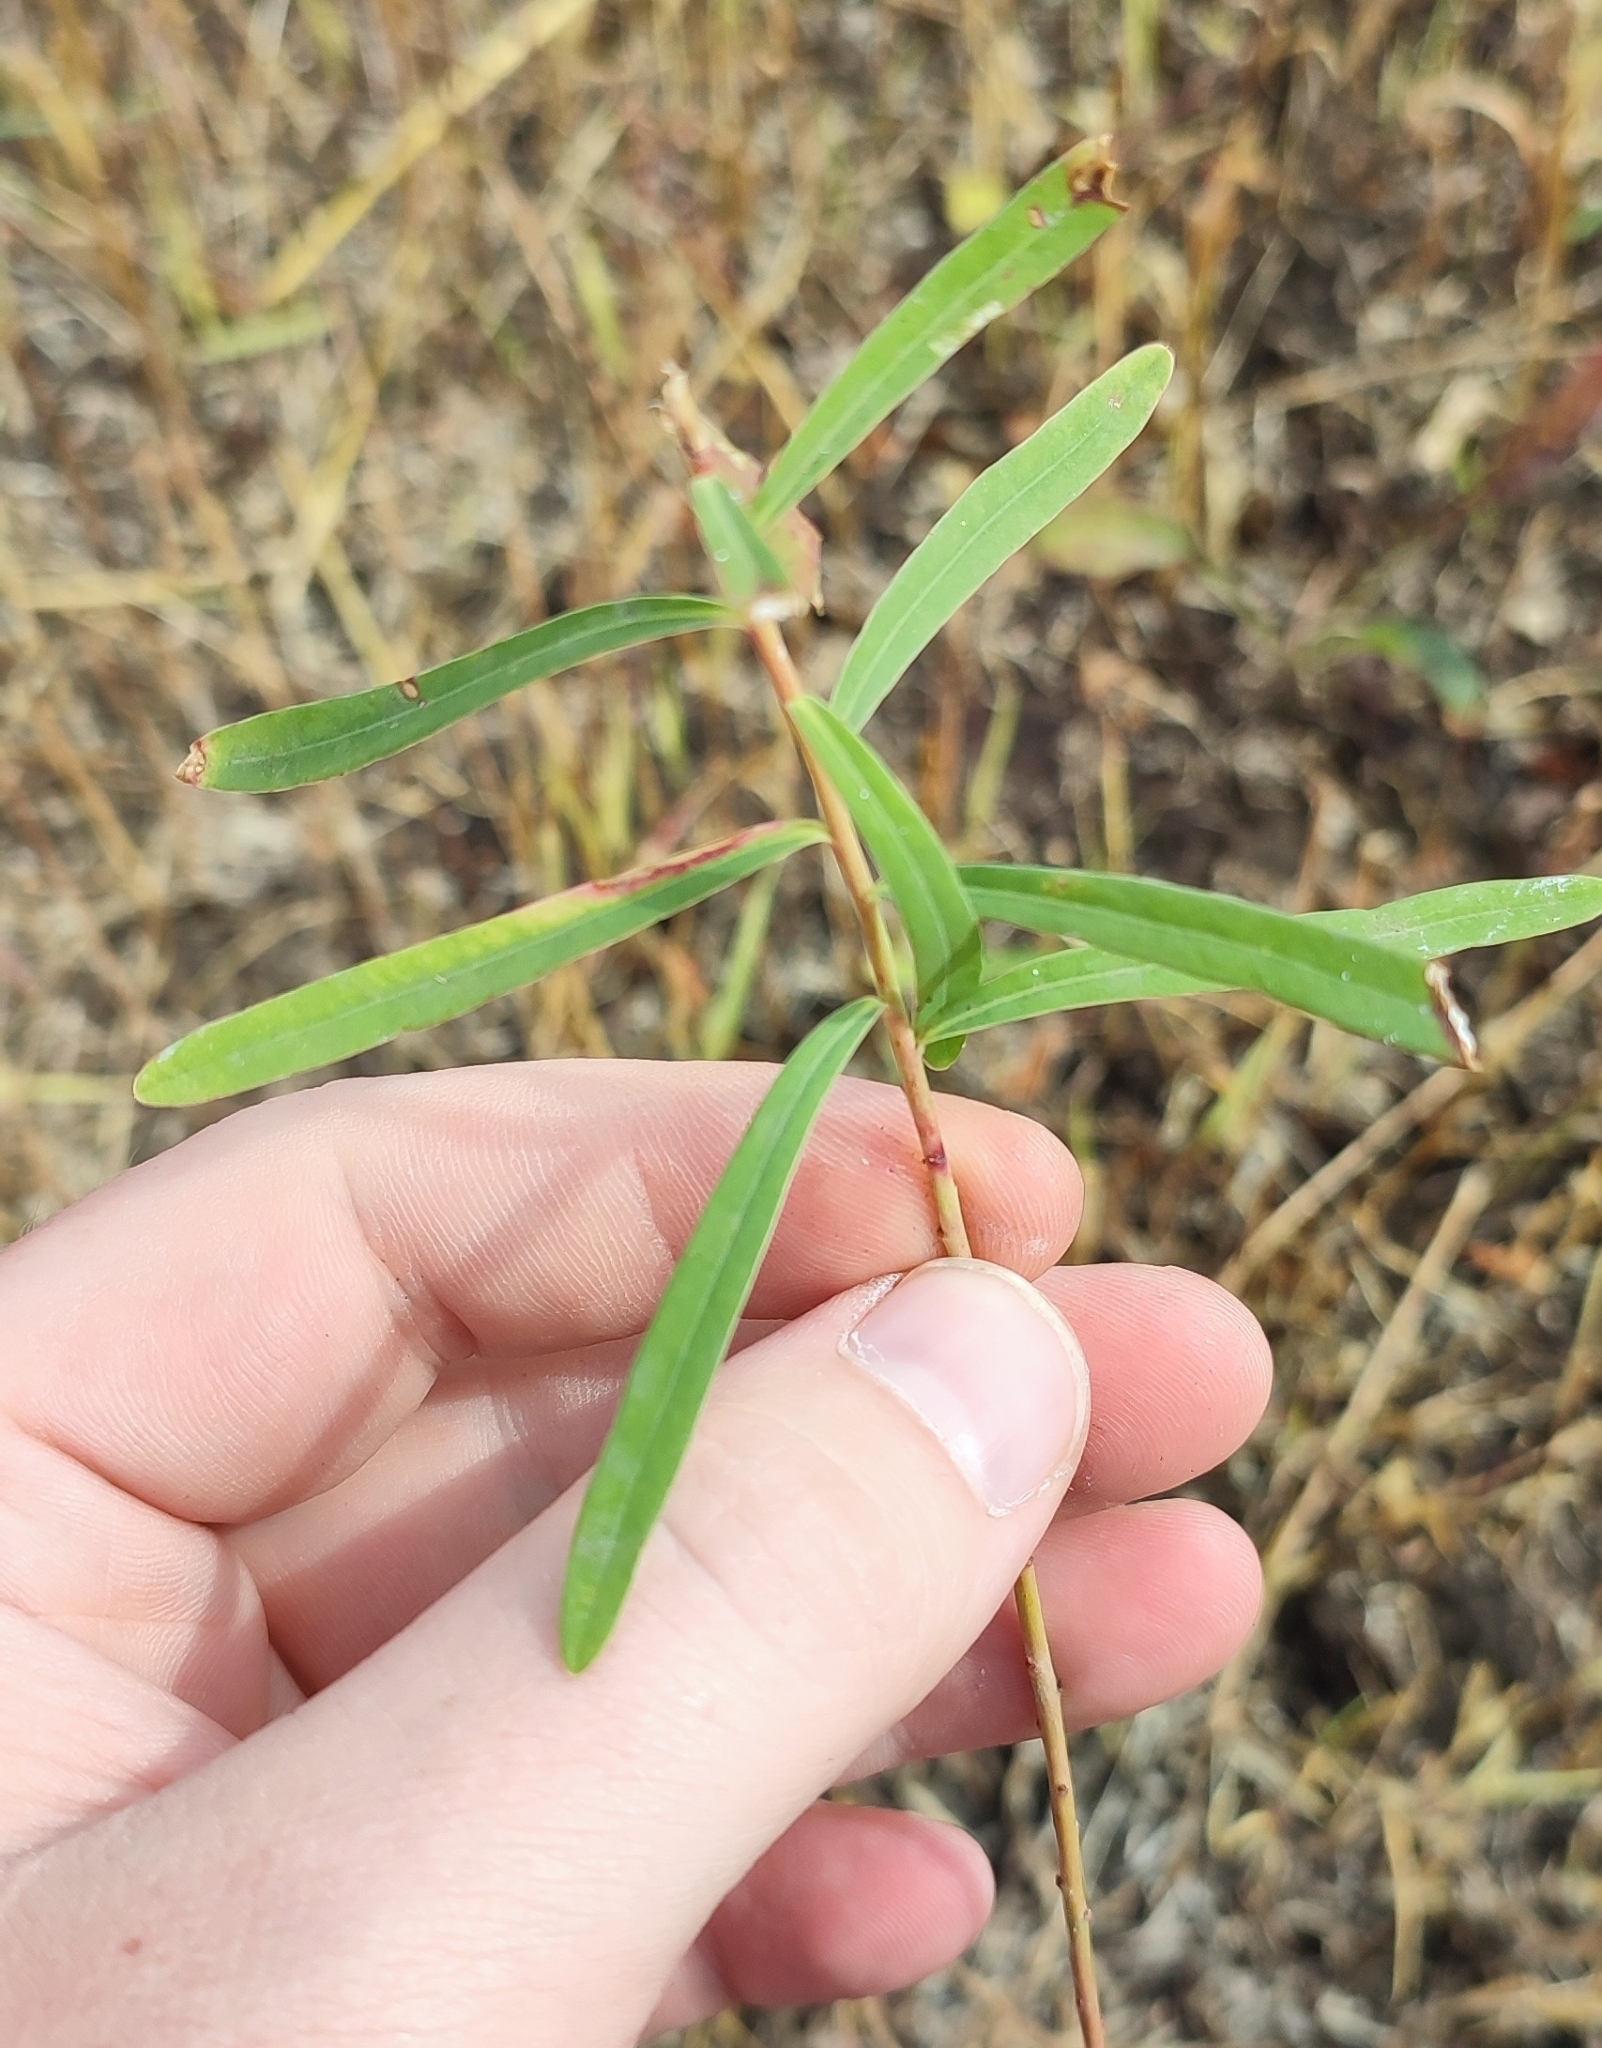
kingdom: Plantae
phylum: Tracheophyta
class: Magnoliopsida
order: Malpighiales
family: Euphorbiaceae
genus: Euphorbia
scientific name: Euphorbia virgata
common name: Leafy spurge
